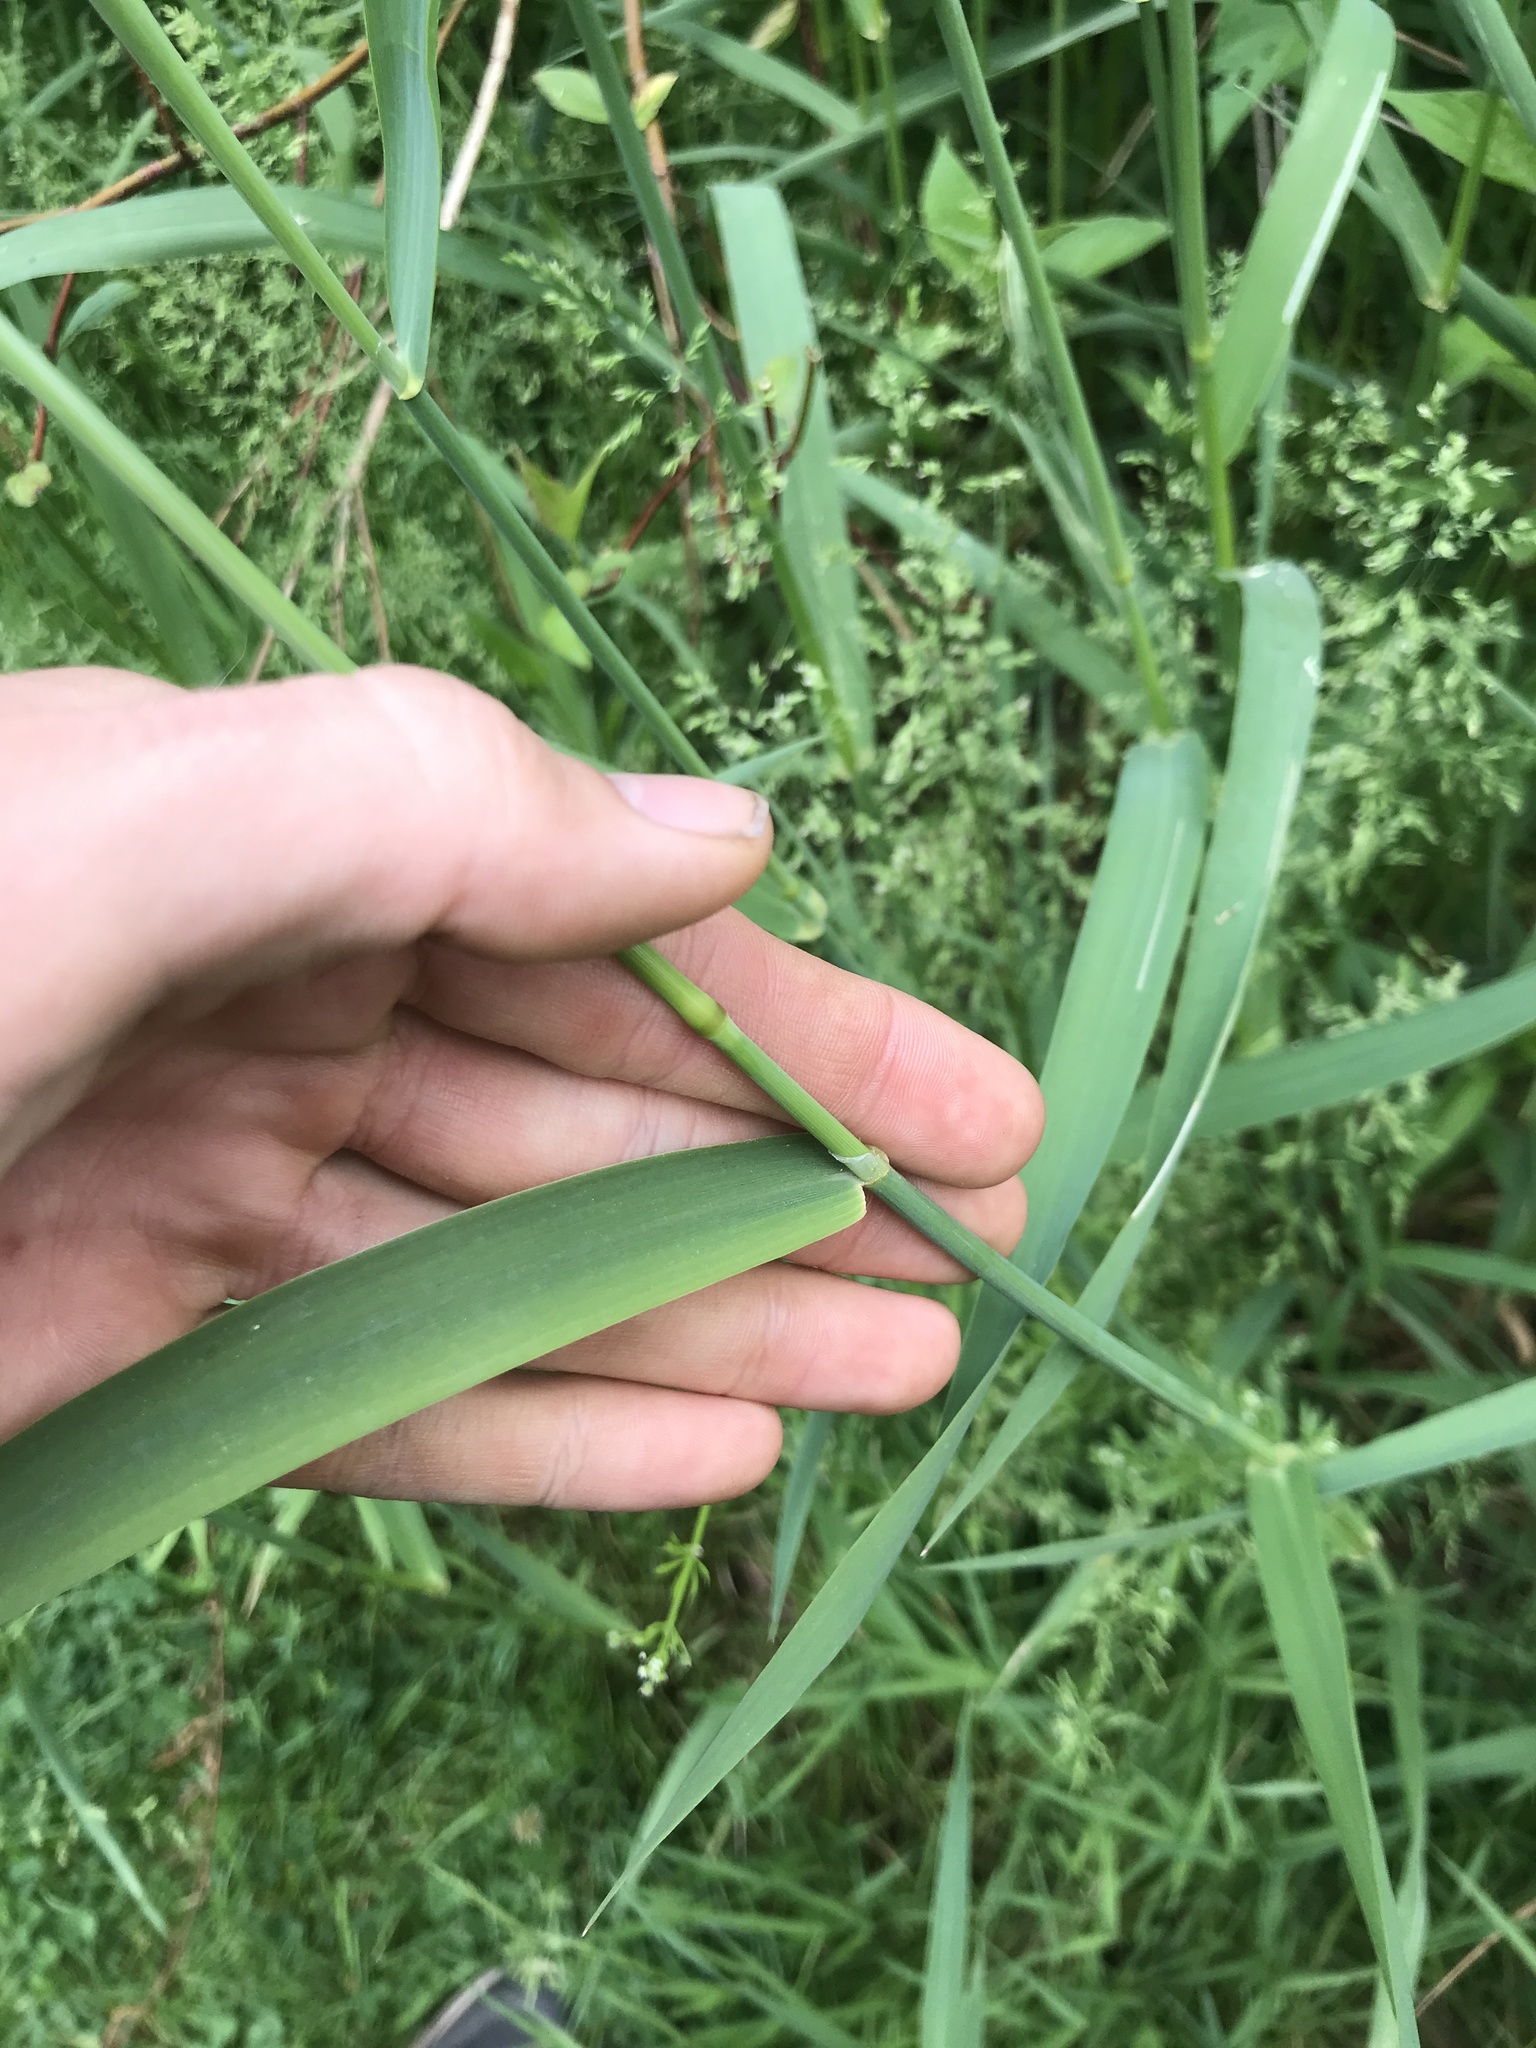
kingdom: Plantae
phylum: Tracheophyta
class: Liliopsida
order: Poales
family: Poaceae
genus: Phalaris
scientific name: Phalaris arundinacea
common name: Reed canary-grass
